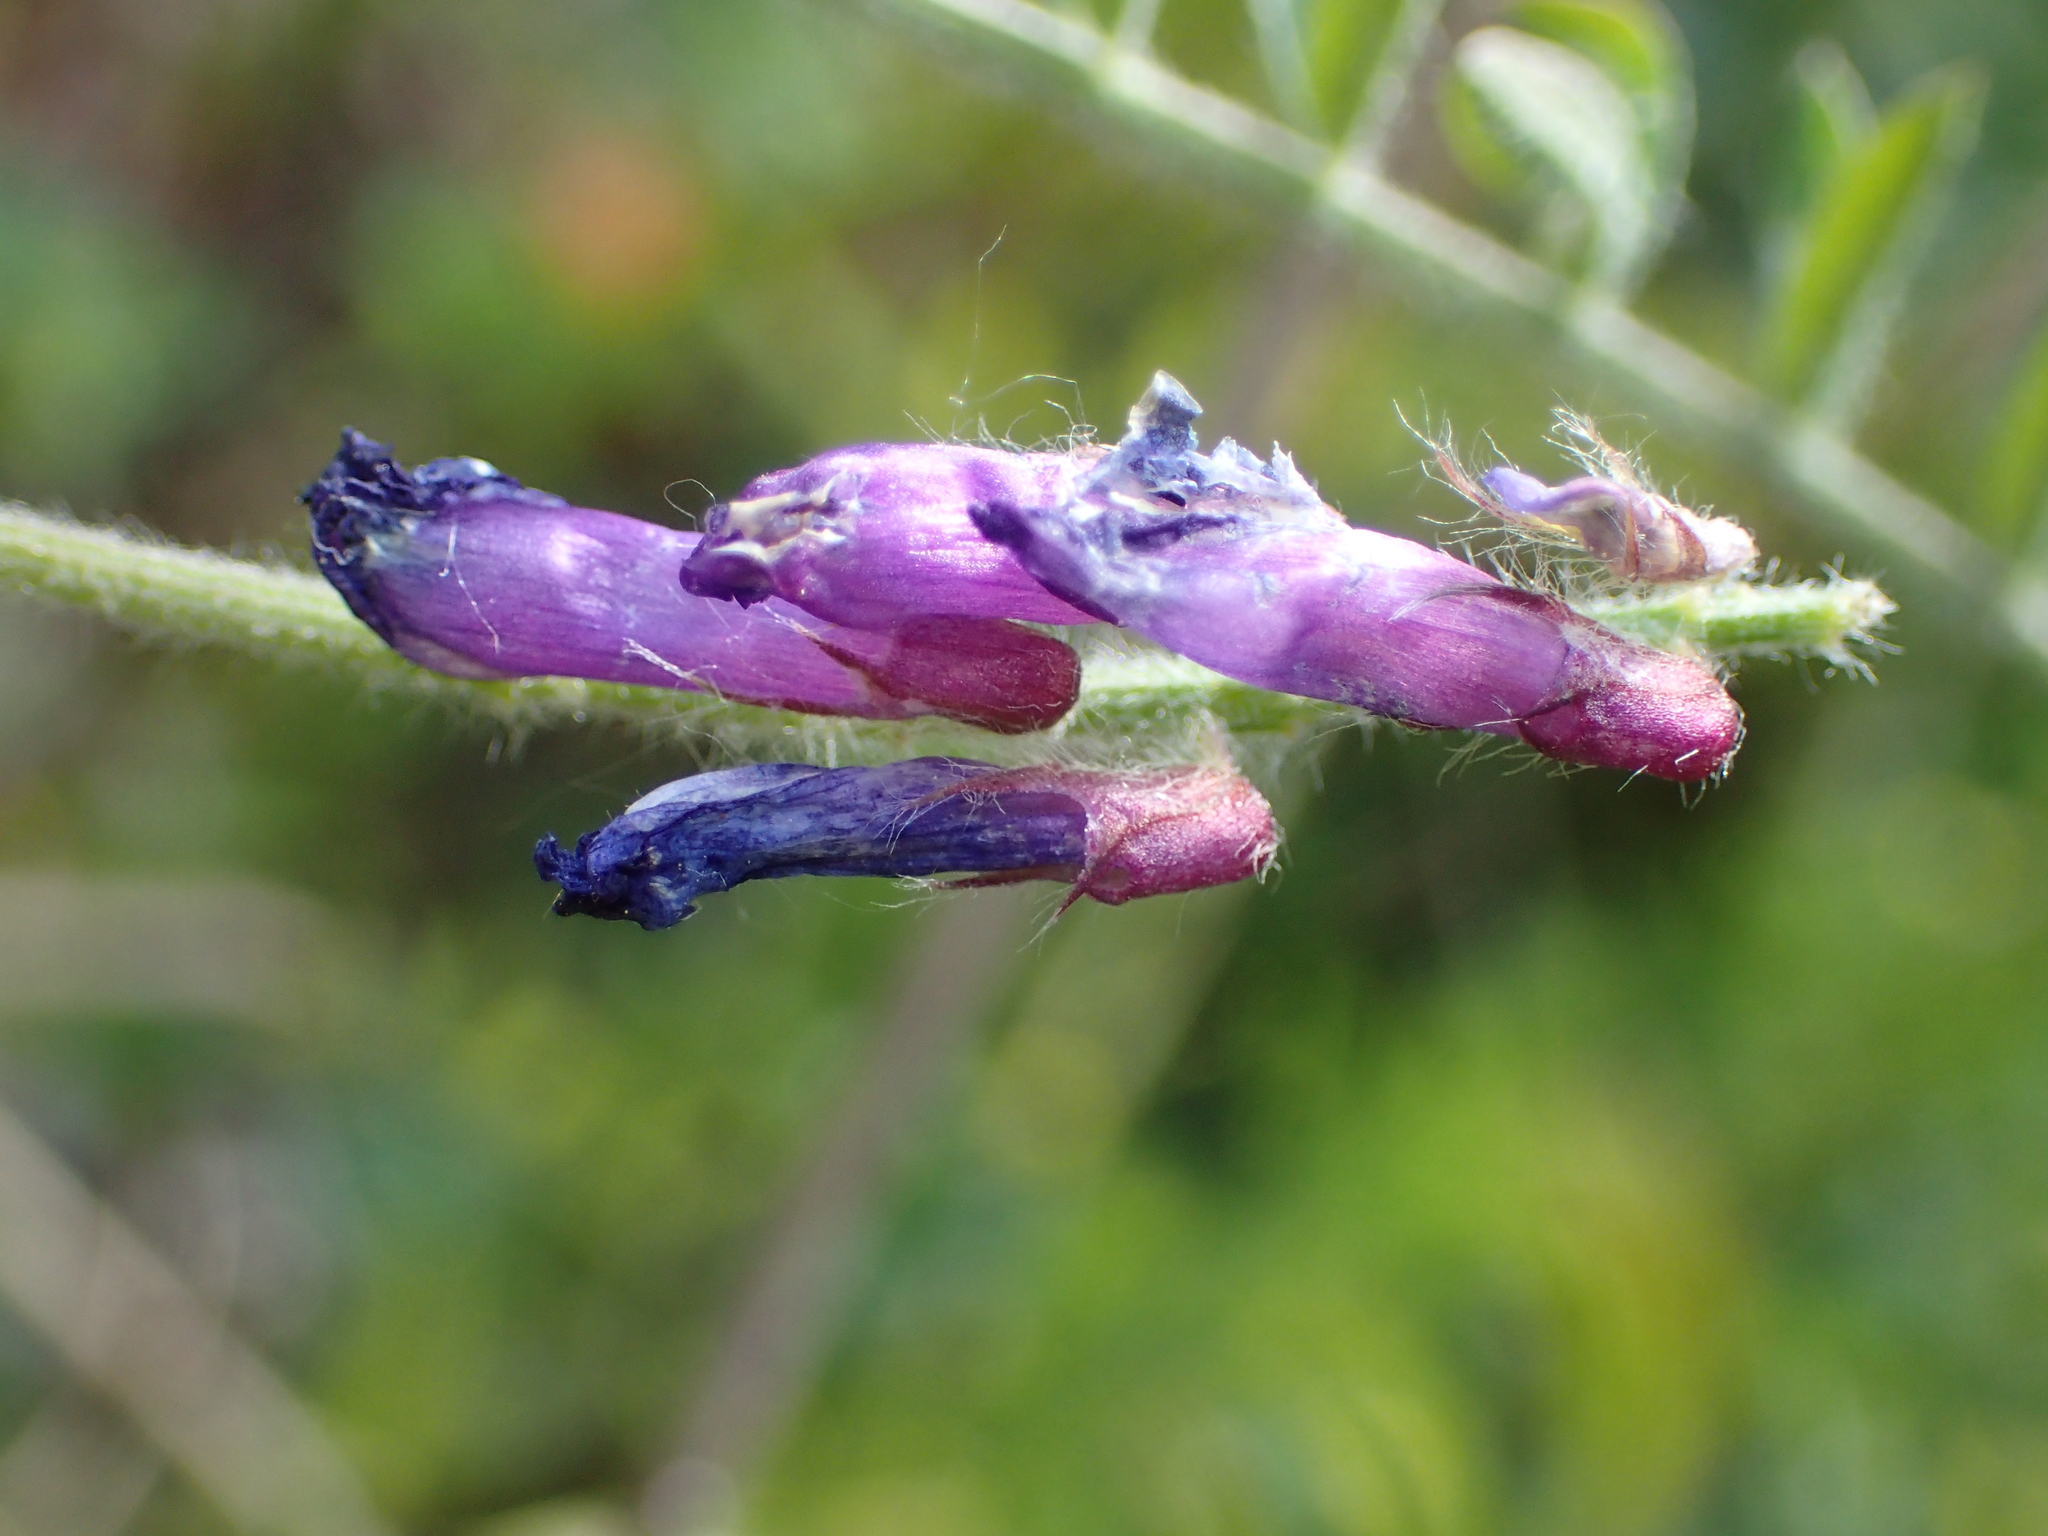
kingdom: Plantae
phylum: Tracheophyta
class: Magnoliopsida
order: Fabales
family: Fabaceae
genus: Vicia
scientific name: Vicia villosa
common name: Fodder vetch
